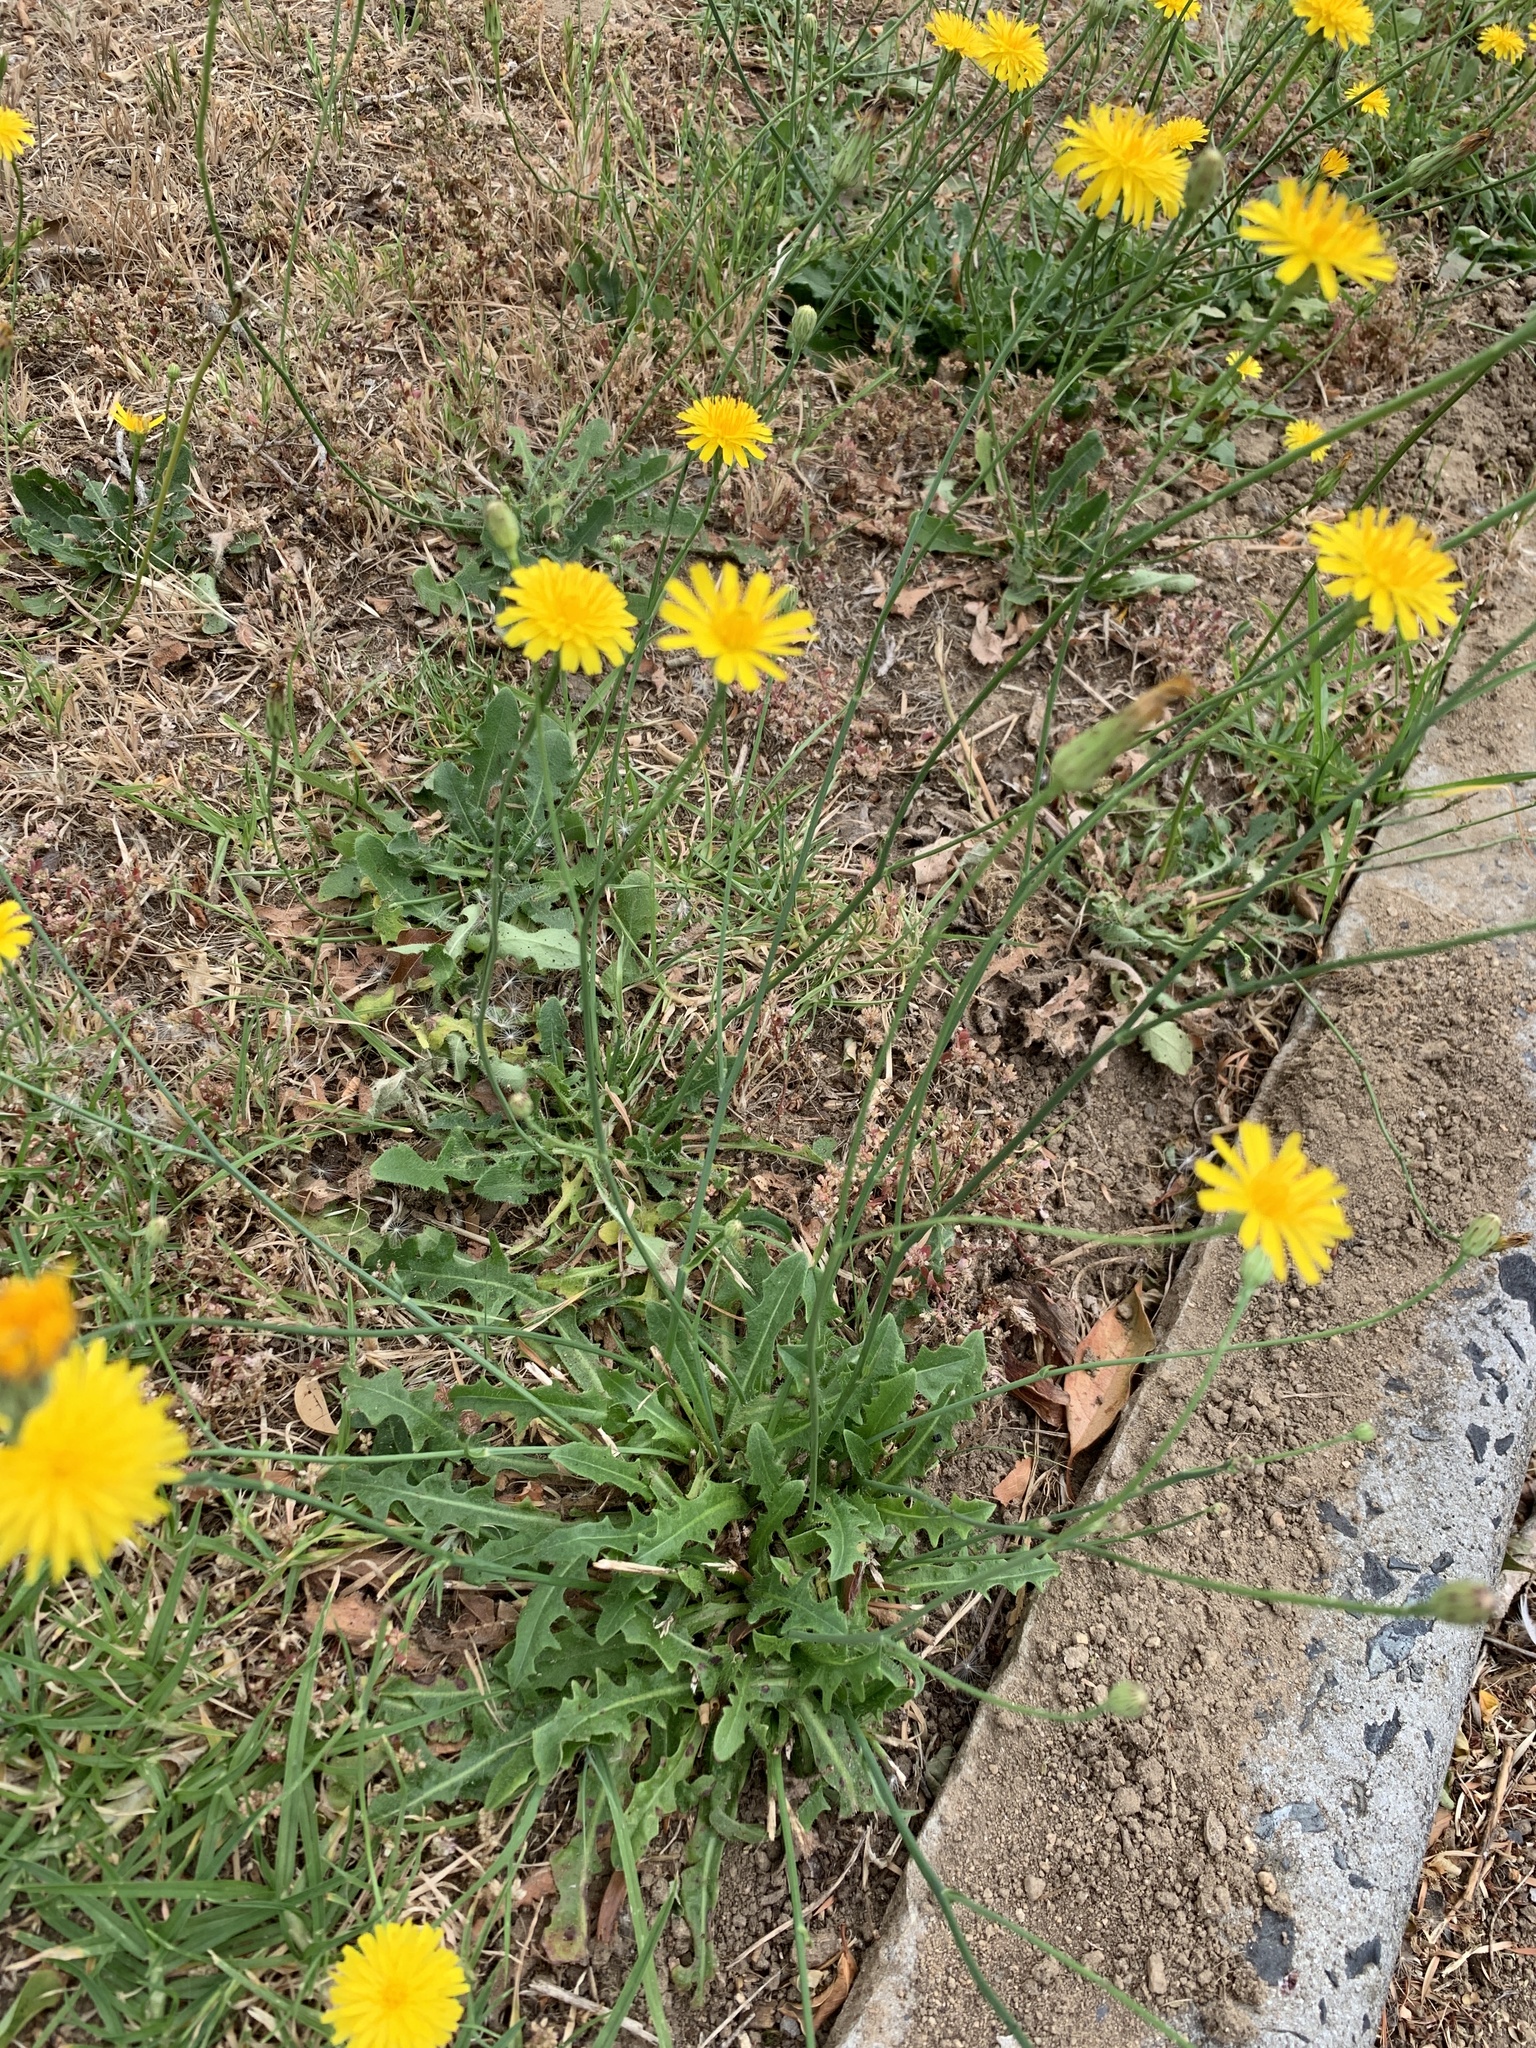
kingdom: Plantae
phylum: Tracheophyta
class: Magnoliopsida
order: Asterales
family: Asteraceae
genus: Hypochaeris
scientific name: Hypochaeris radicata
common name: Flatweed
